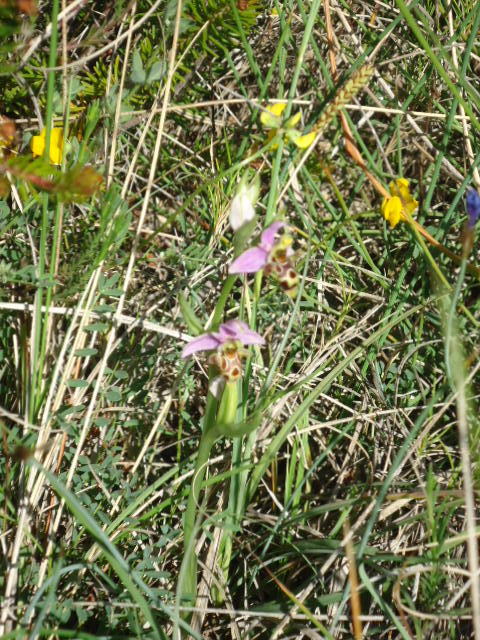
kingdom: Plantae
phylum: Tracheophyta
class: Liliopsida
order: Asparagales
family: Orchidaceae
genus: Ophrys
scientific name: Ophrys scolopax
